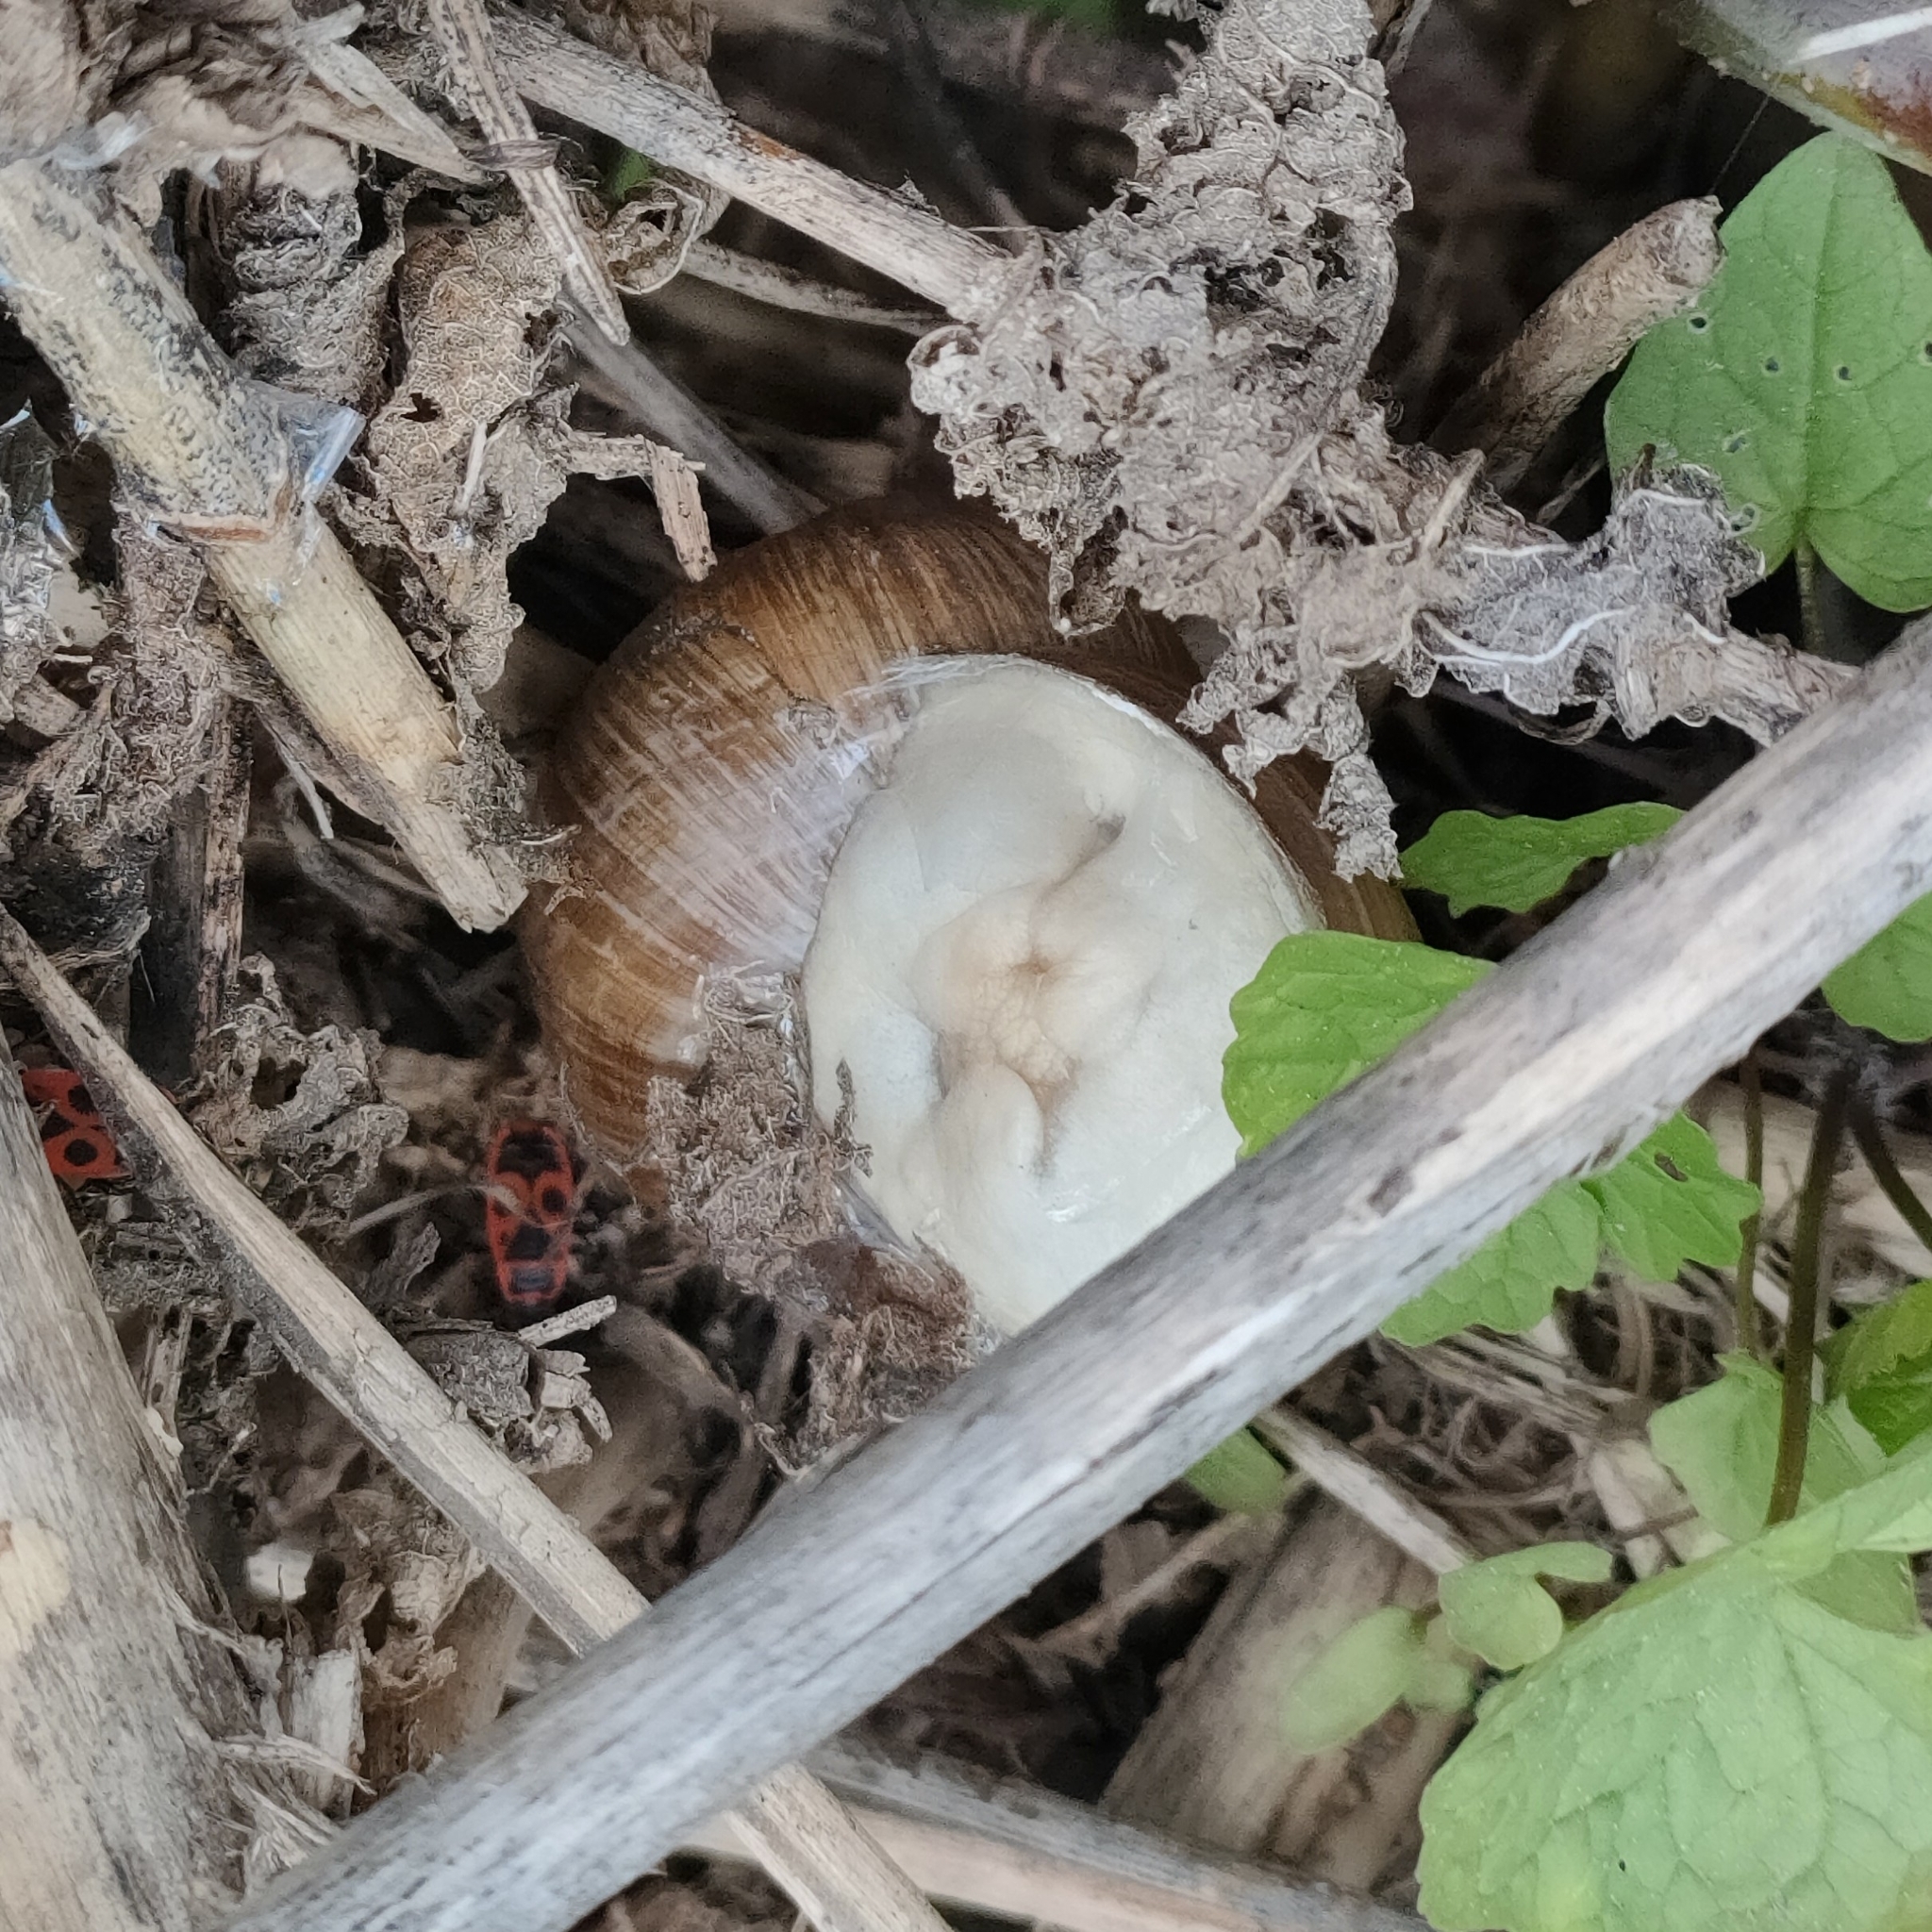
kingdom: Animalia
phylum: Mollusca
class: Gastropoda
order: Stylommatophora
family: Helicidae
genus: Helix
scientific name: Helix pomatia
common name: Roman snail
